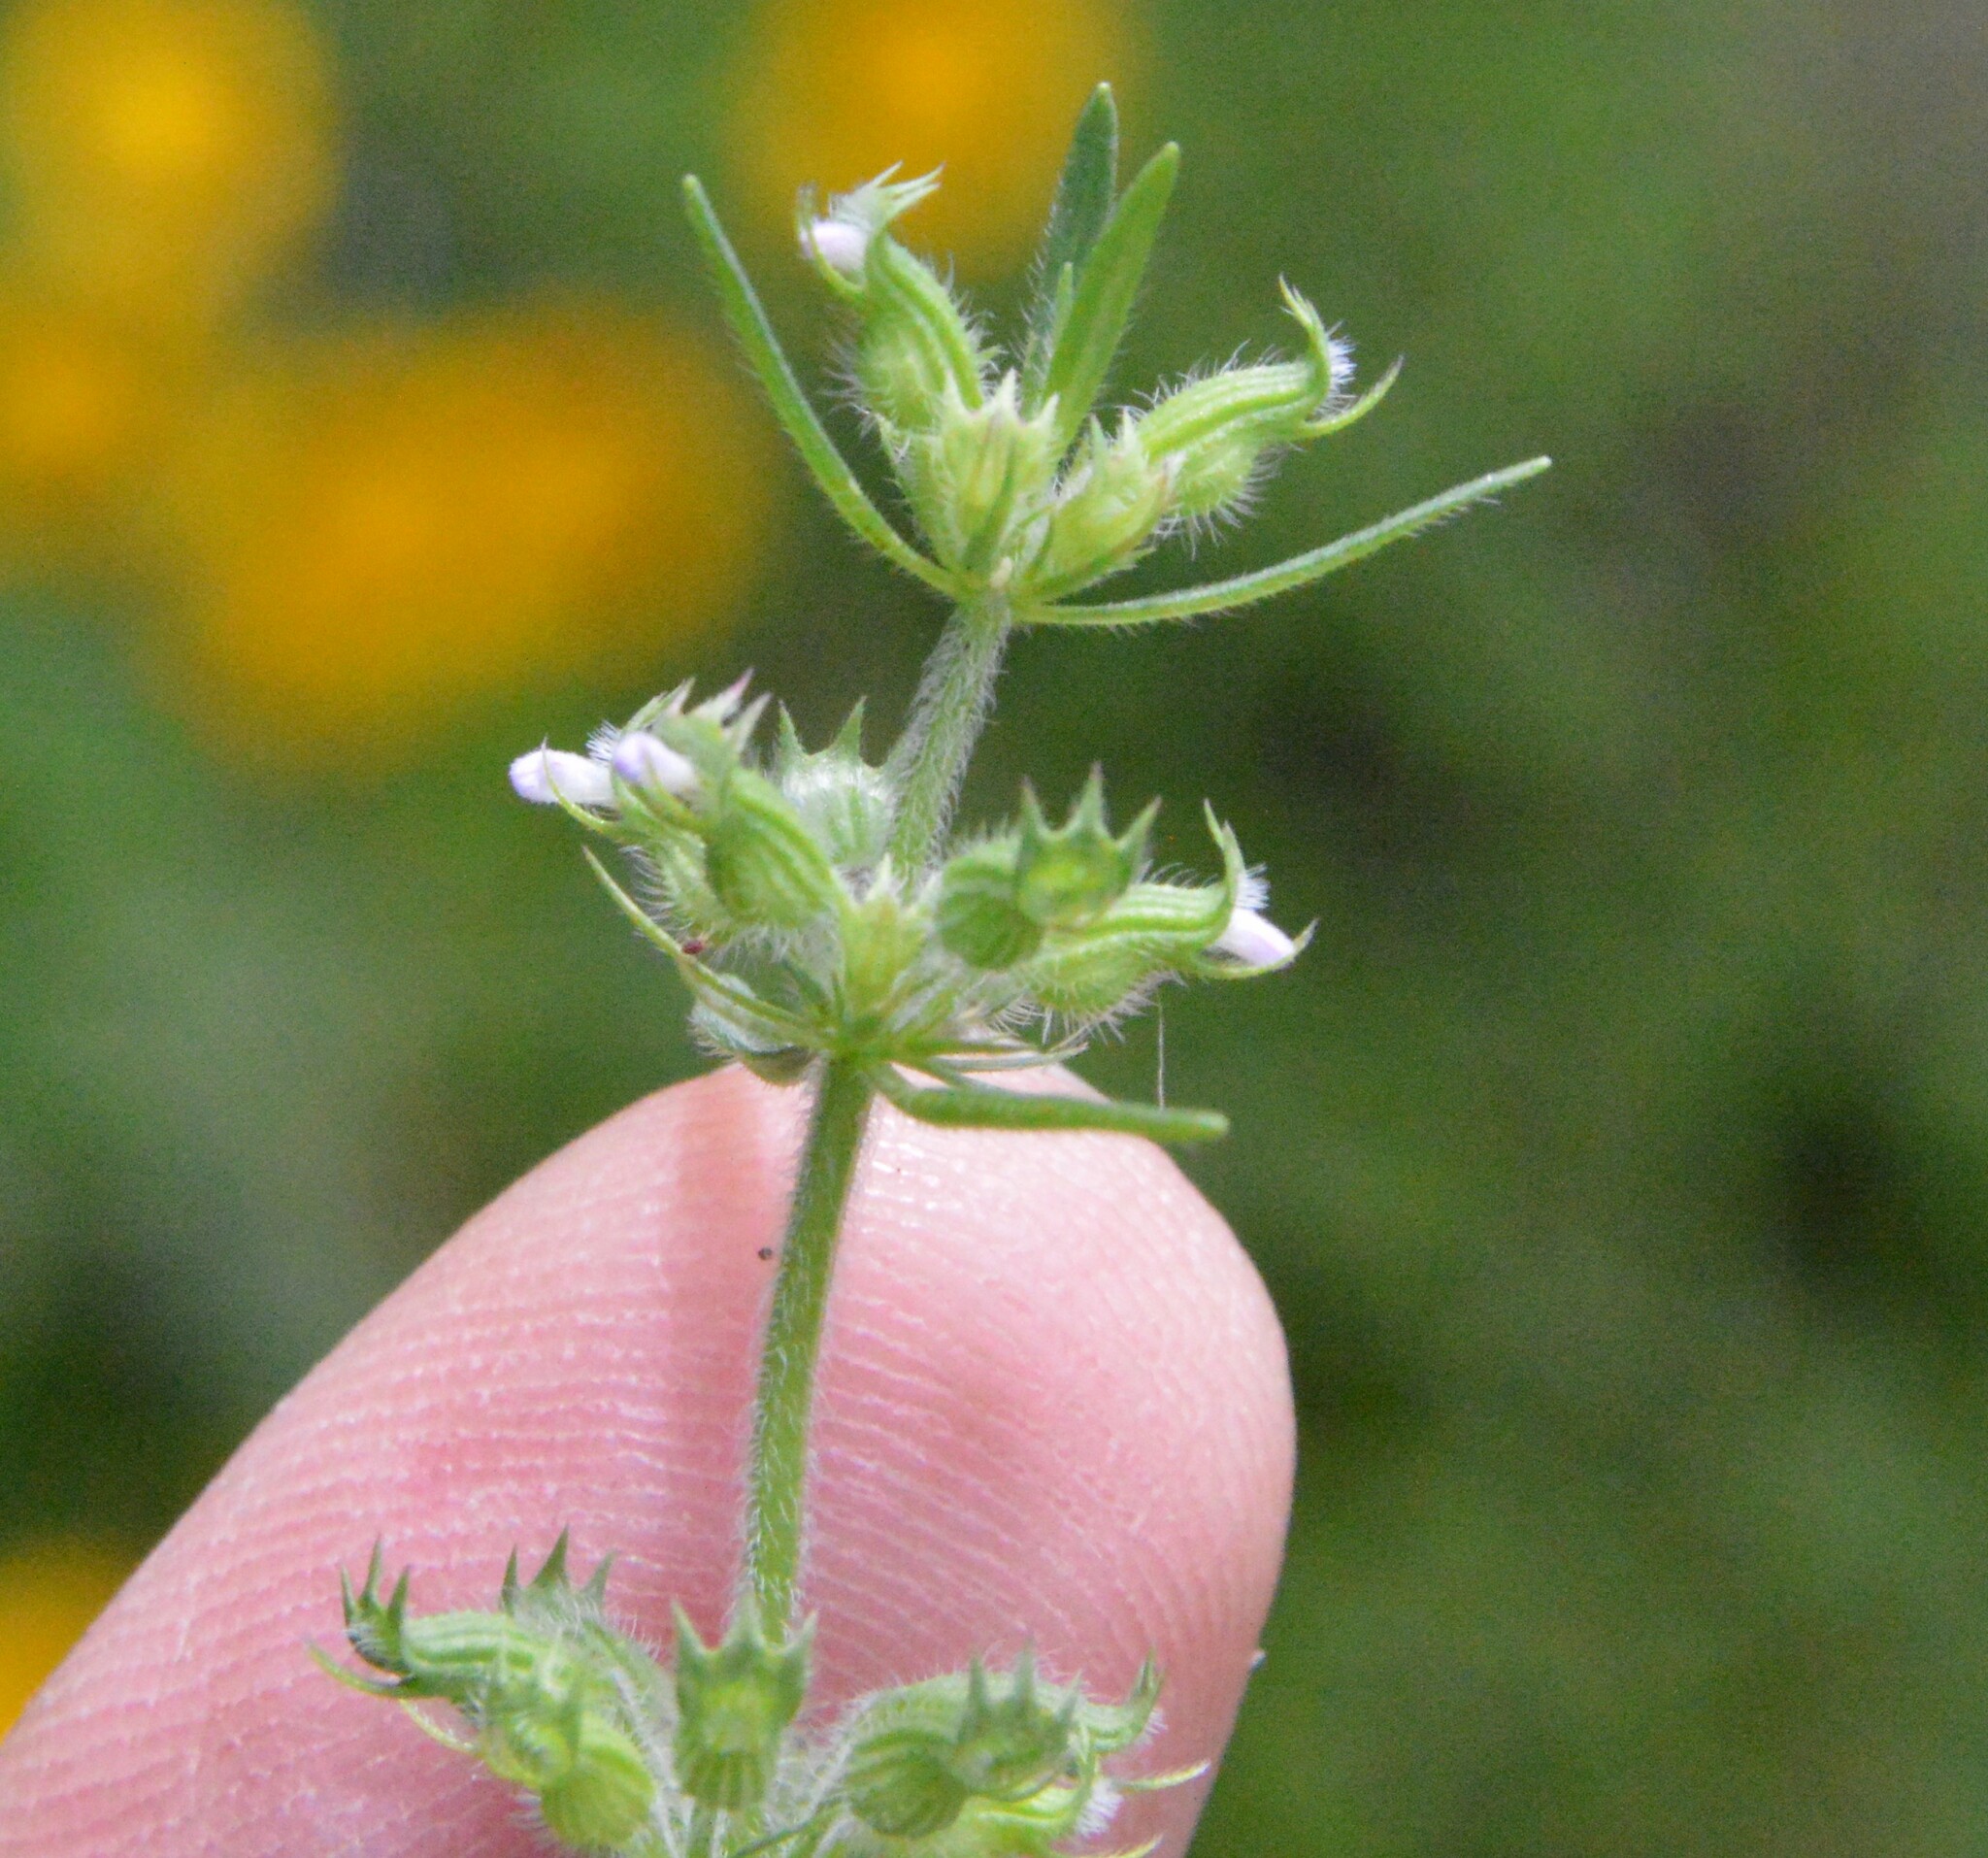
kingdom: Plantae
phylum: Tracheophyta
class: Magnoliopsida
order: Lamiales
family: Lamiaceae
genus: Hedeoma
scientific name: Hedeoma hispida
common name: Mock pennyroyal
